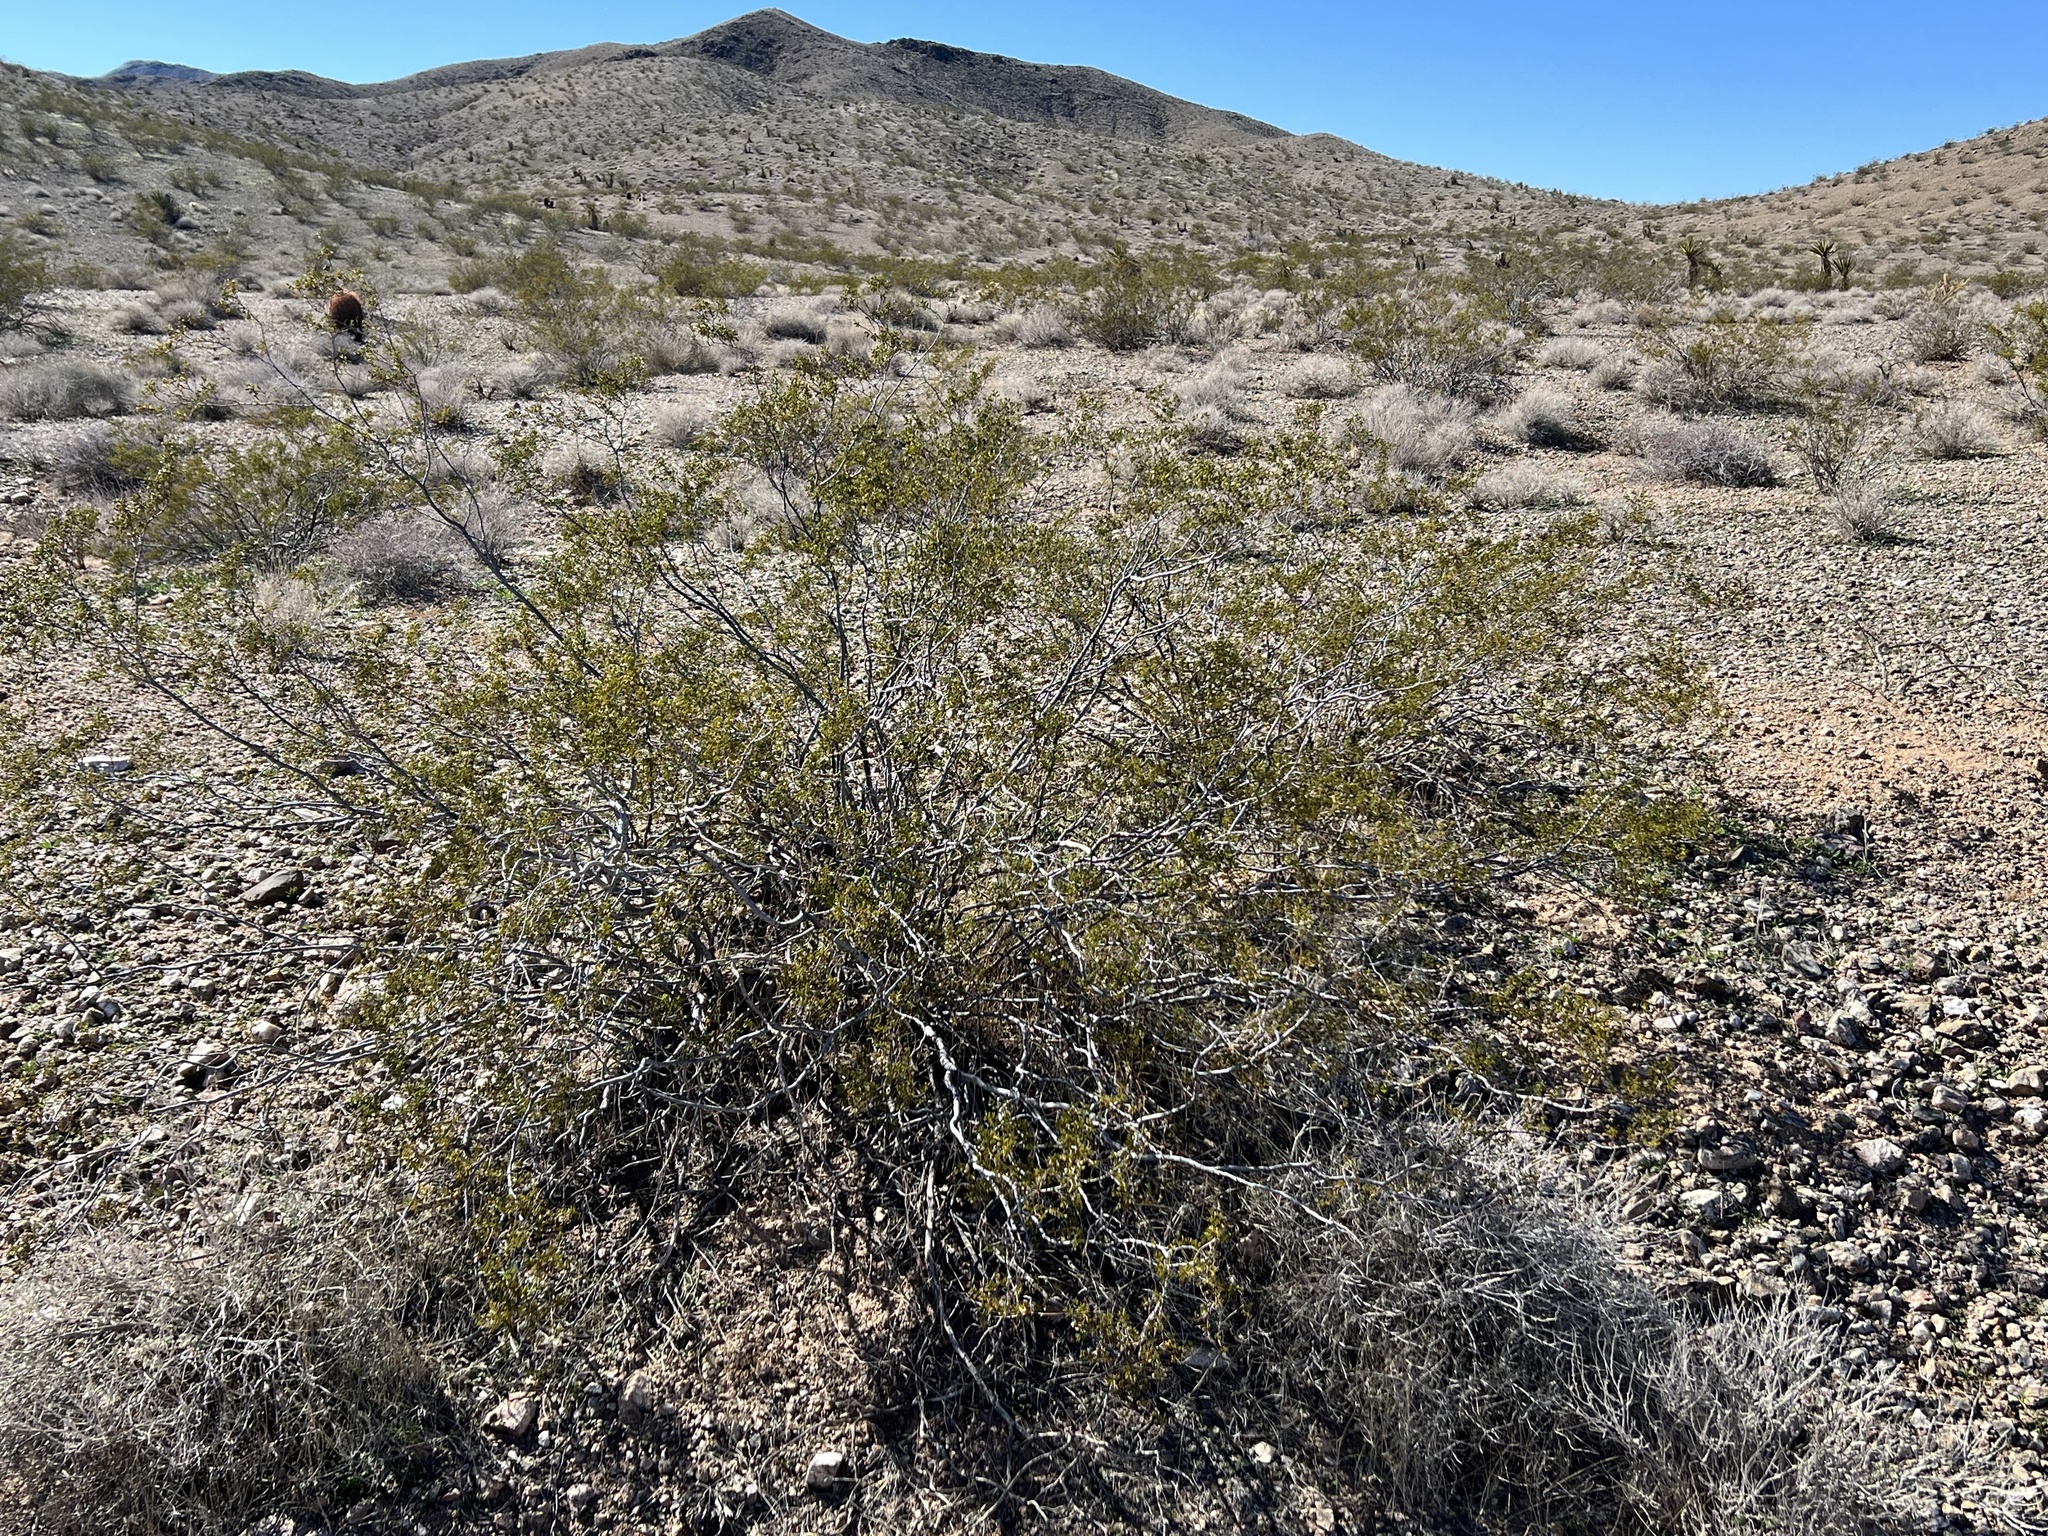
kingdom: Plantae
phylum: Tracheophyta
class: Magnoliopsida
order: Zygophyllales
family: Zygophyllaceae
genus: Larrea
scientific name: Larrea tridentata
